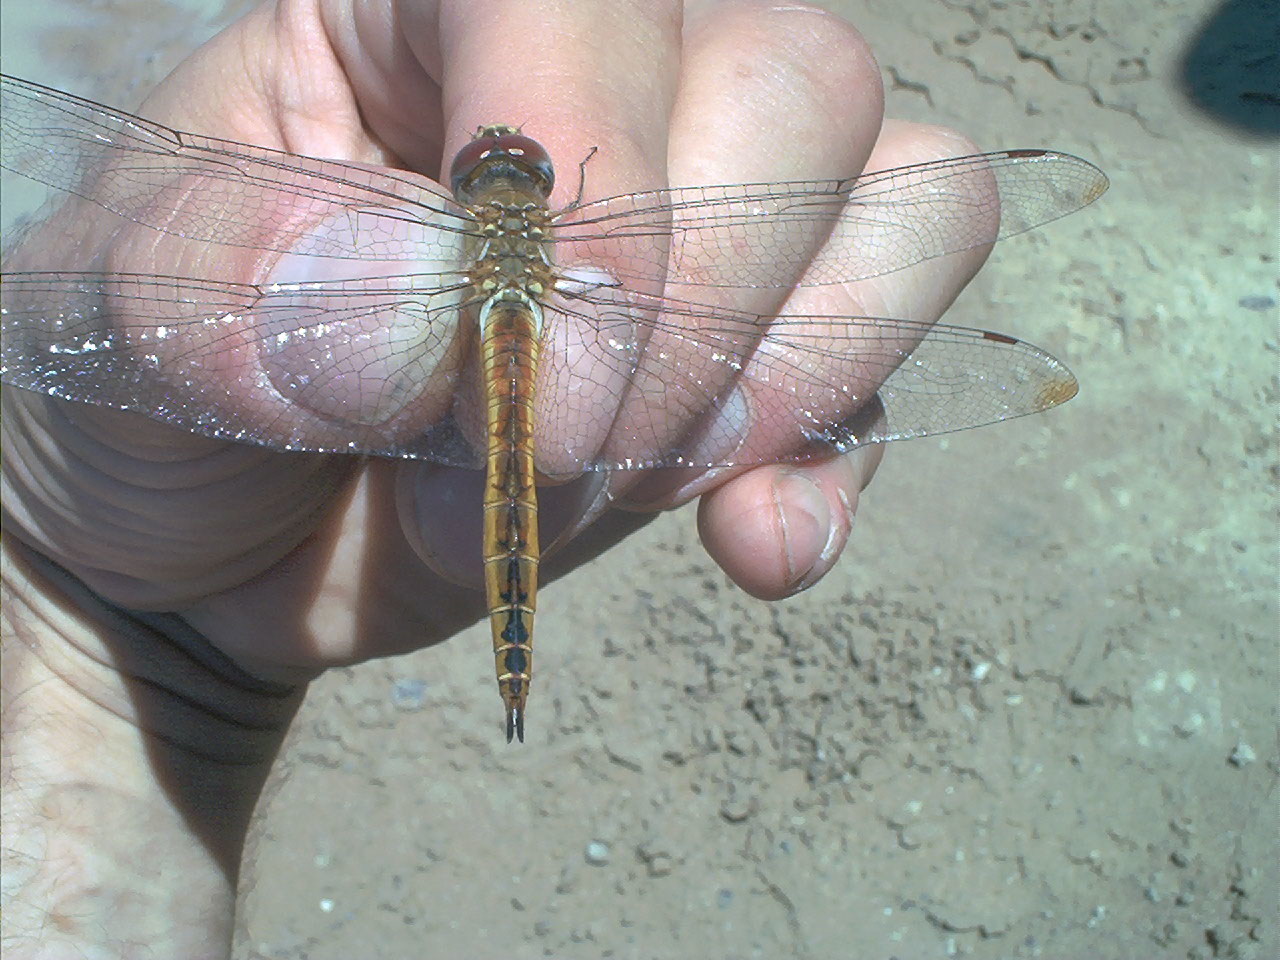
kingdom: Animalia
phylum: Arthropoda
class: Insecta
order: Odonata
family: Libellulidae
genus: Pantala
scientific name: Pantala flavescens
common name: Wandering glider
